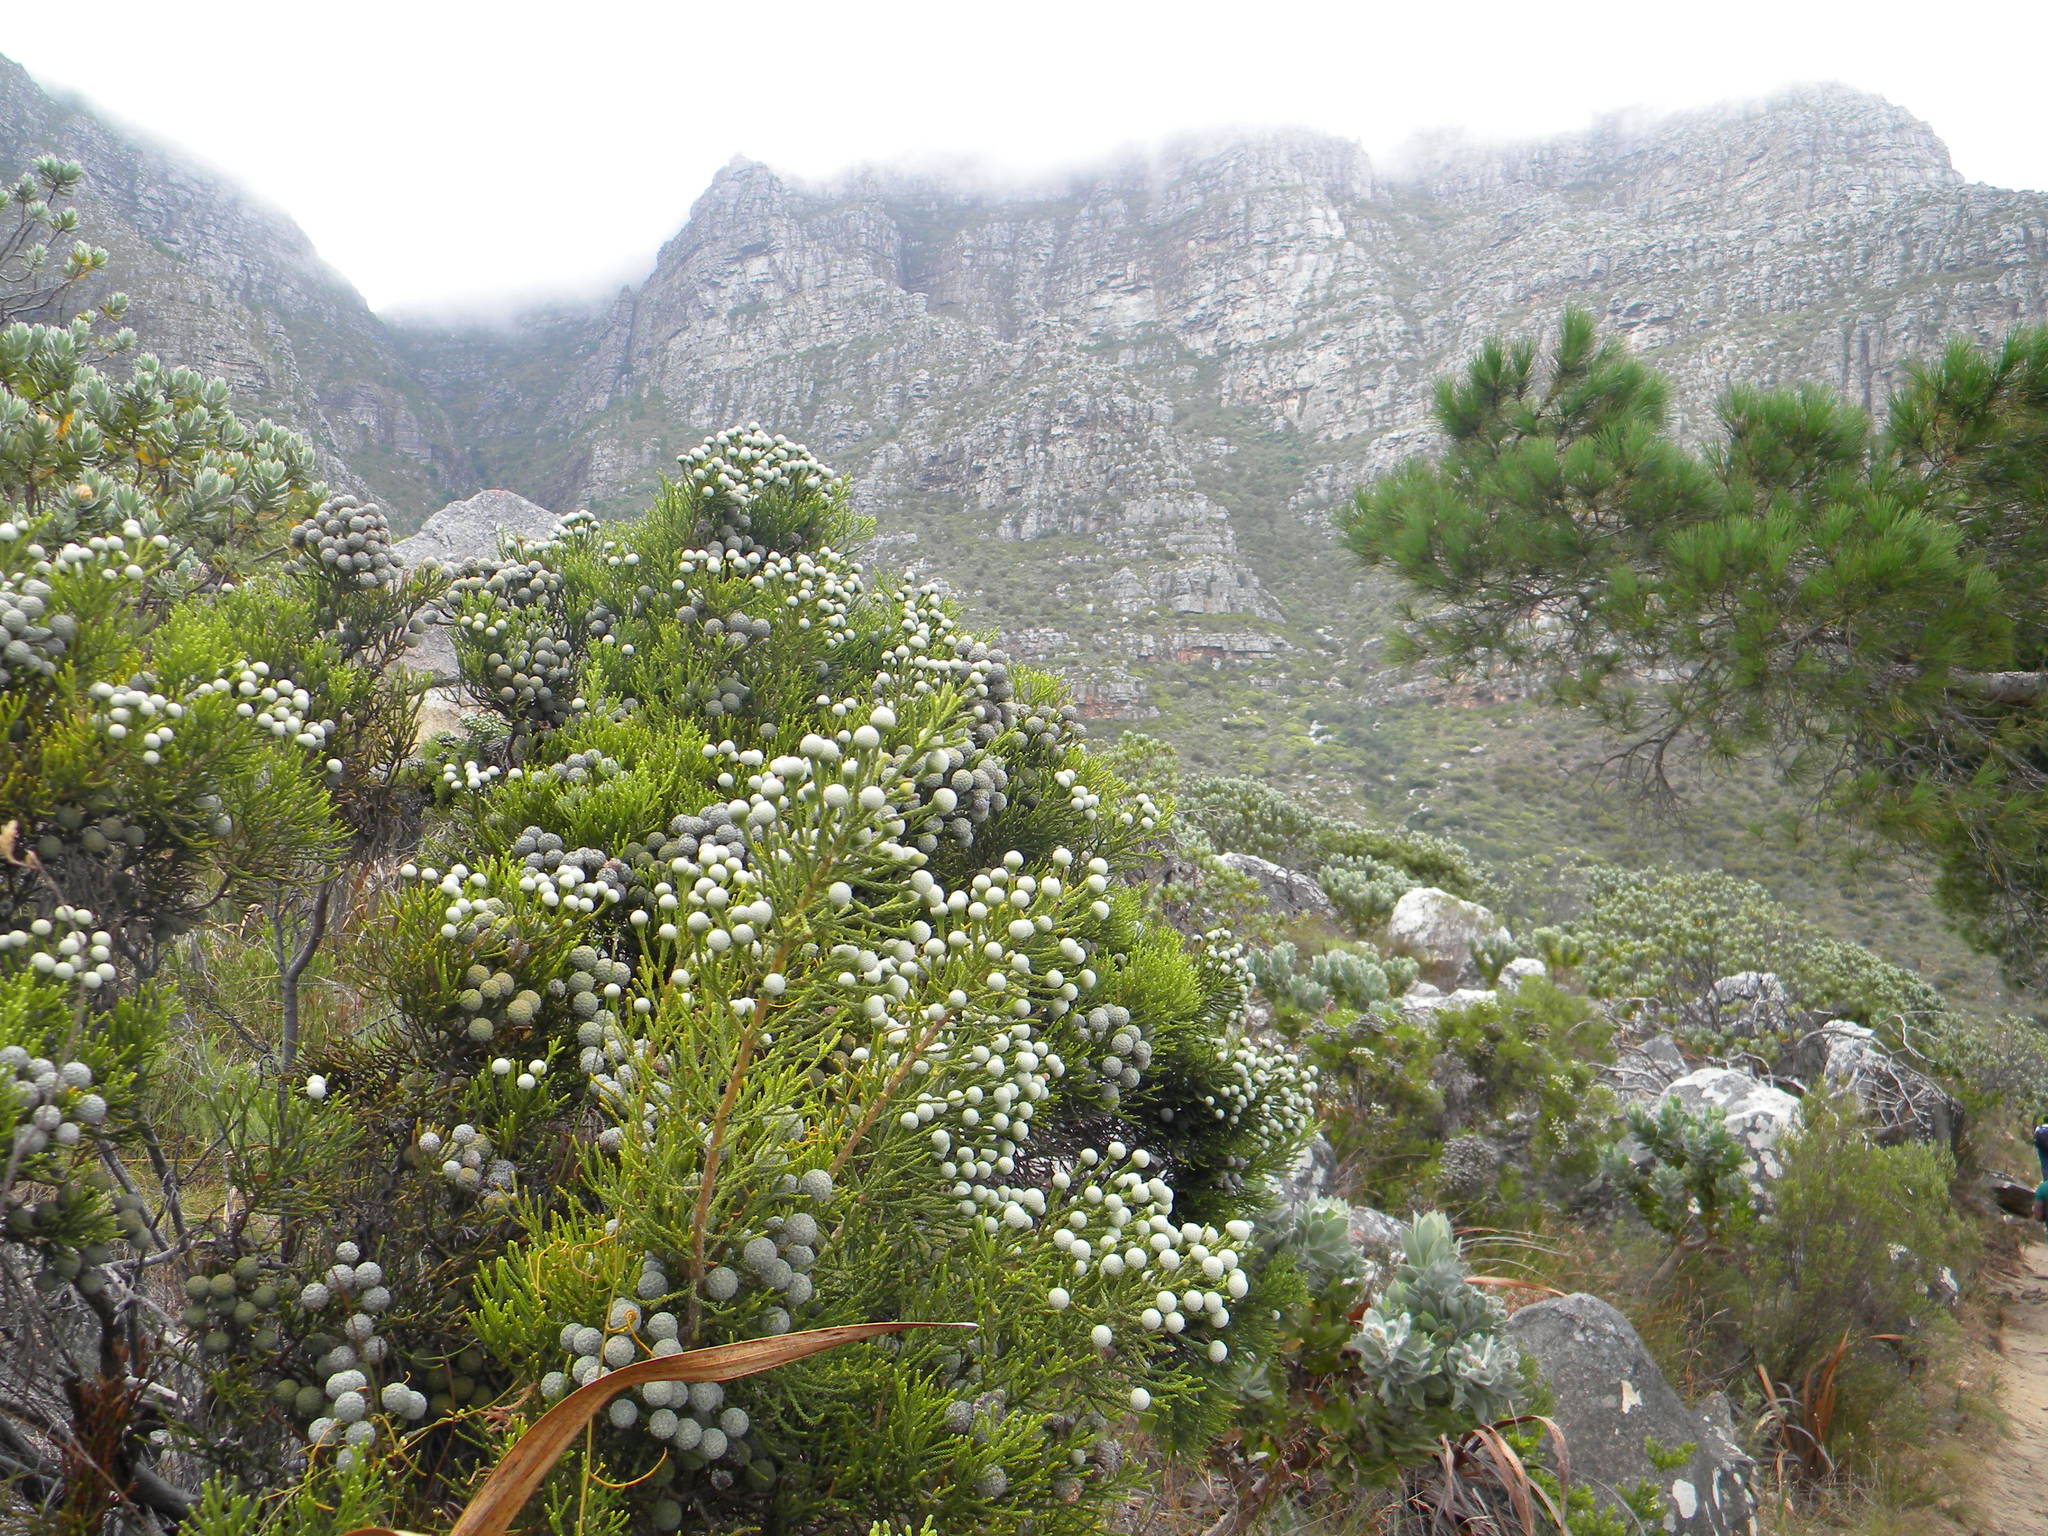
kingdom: Plantae
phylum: Tracheophyta
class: Magnoliopsida
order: Bruniales
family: Bruniaceae
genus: Brunia
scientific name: Brunia noduliflora
